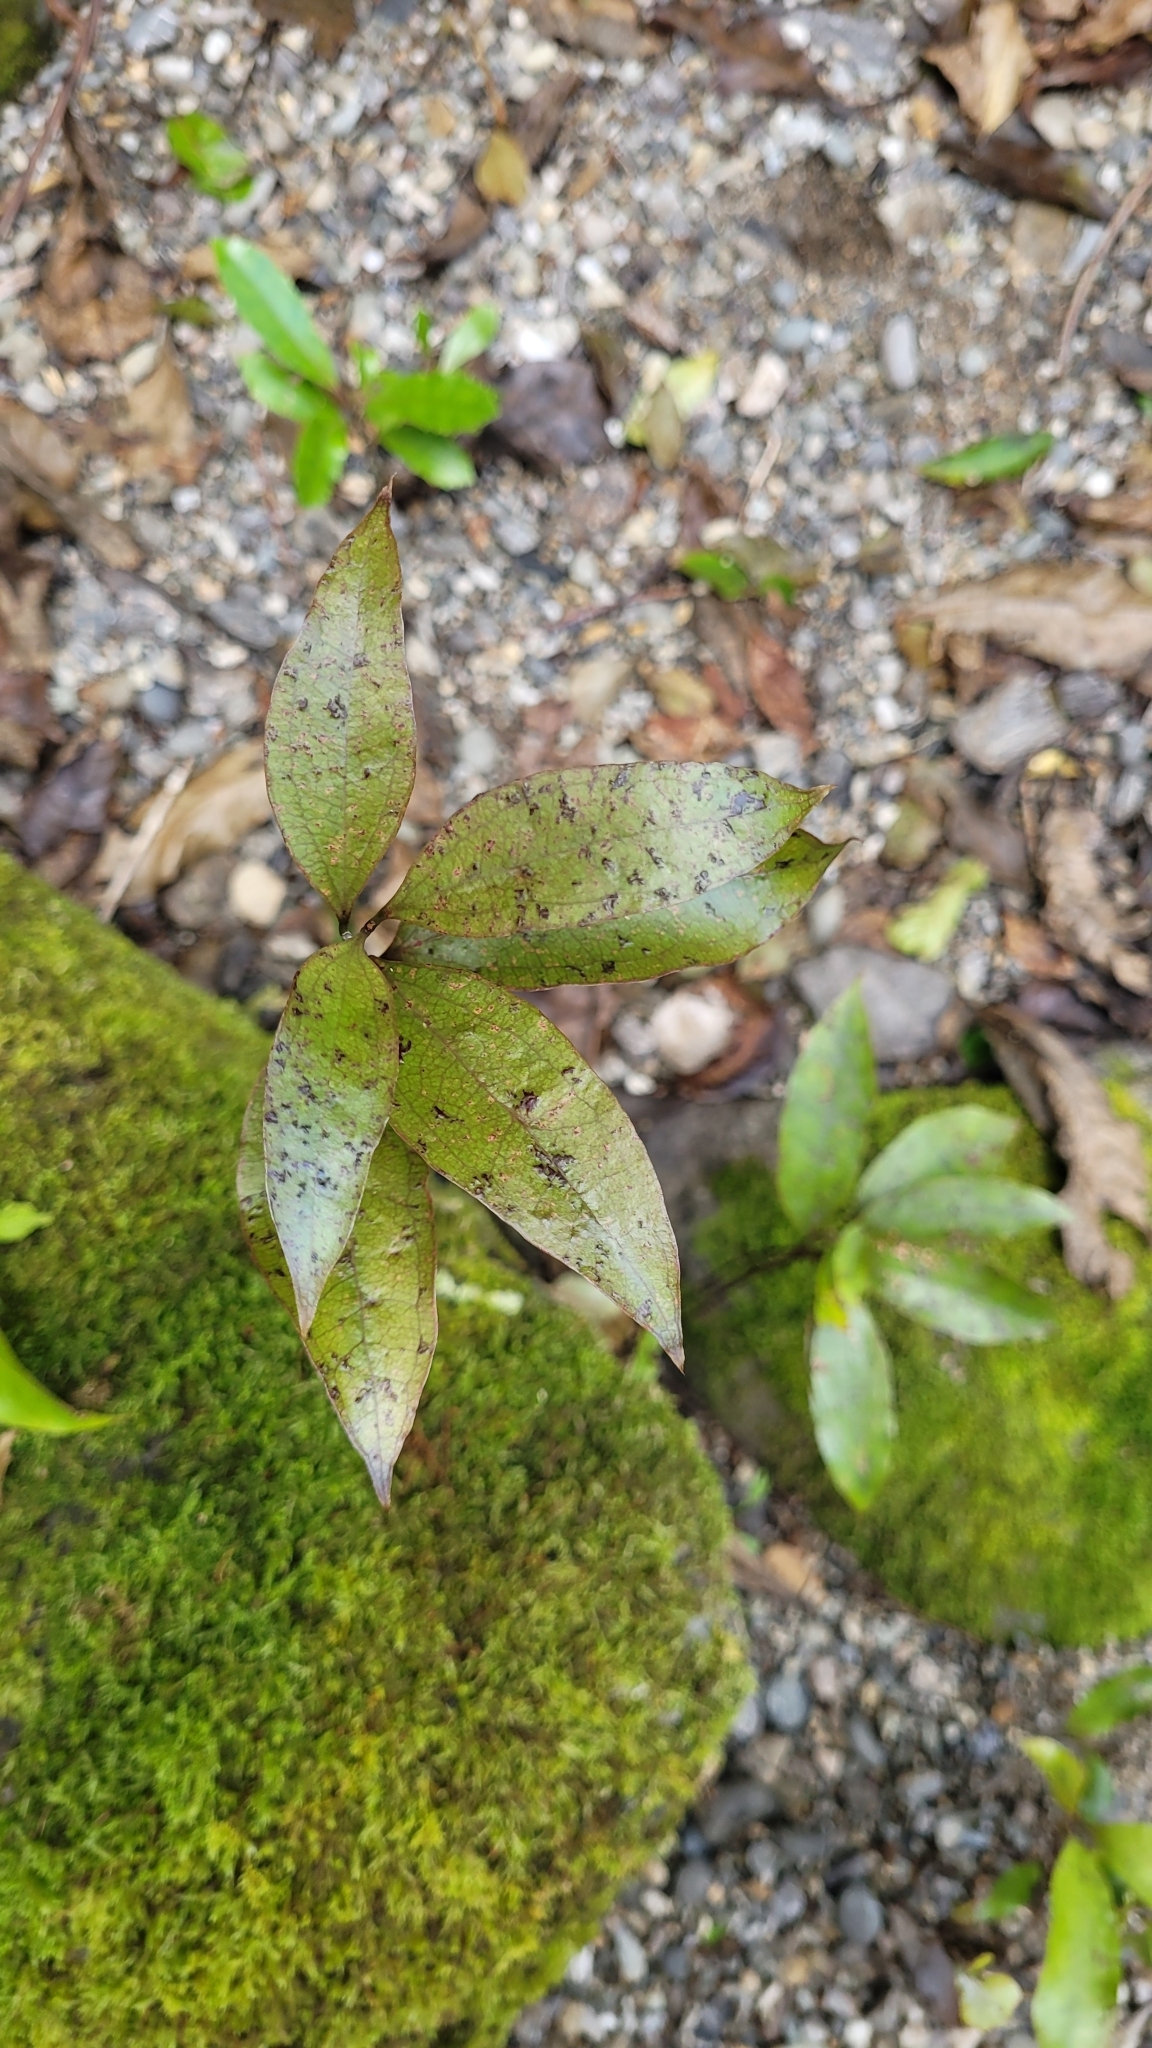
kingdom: Plantae
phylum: Tracheophyta
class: Liliopsida
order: Liliales
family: Ripogonaceae
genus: Ripogonum
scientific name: Ripogonum scandens
